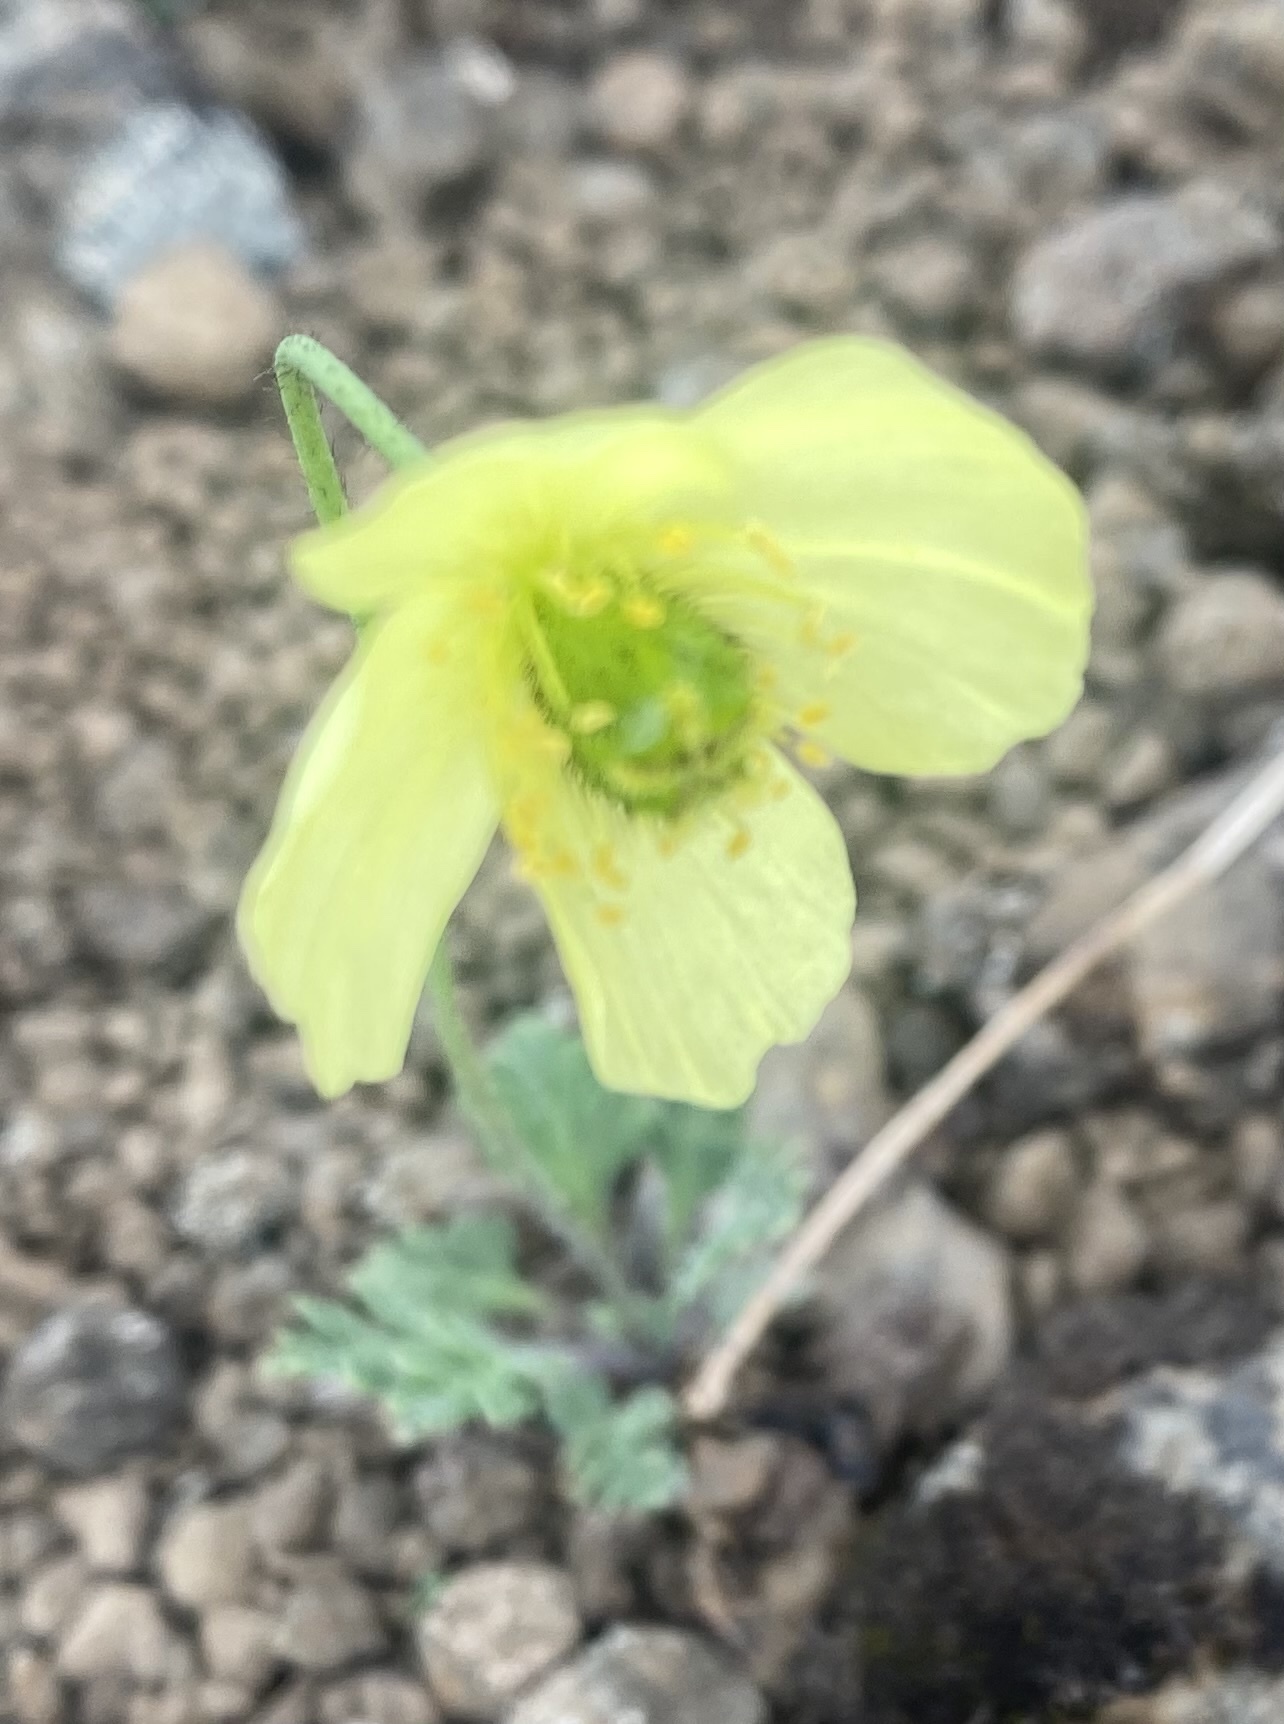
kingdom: Plantae
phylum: Tracheophyta
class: Magnoliopsida
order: Ranunculales
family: Papaveraceae
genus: Papaver
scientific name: Papaver pulvinatum
